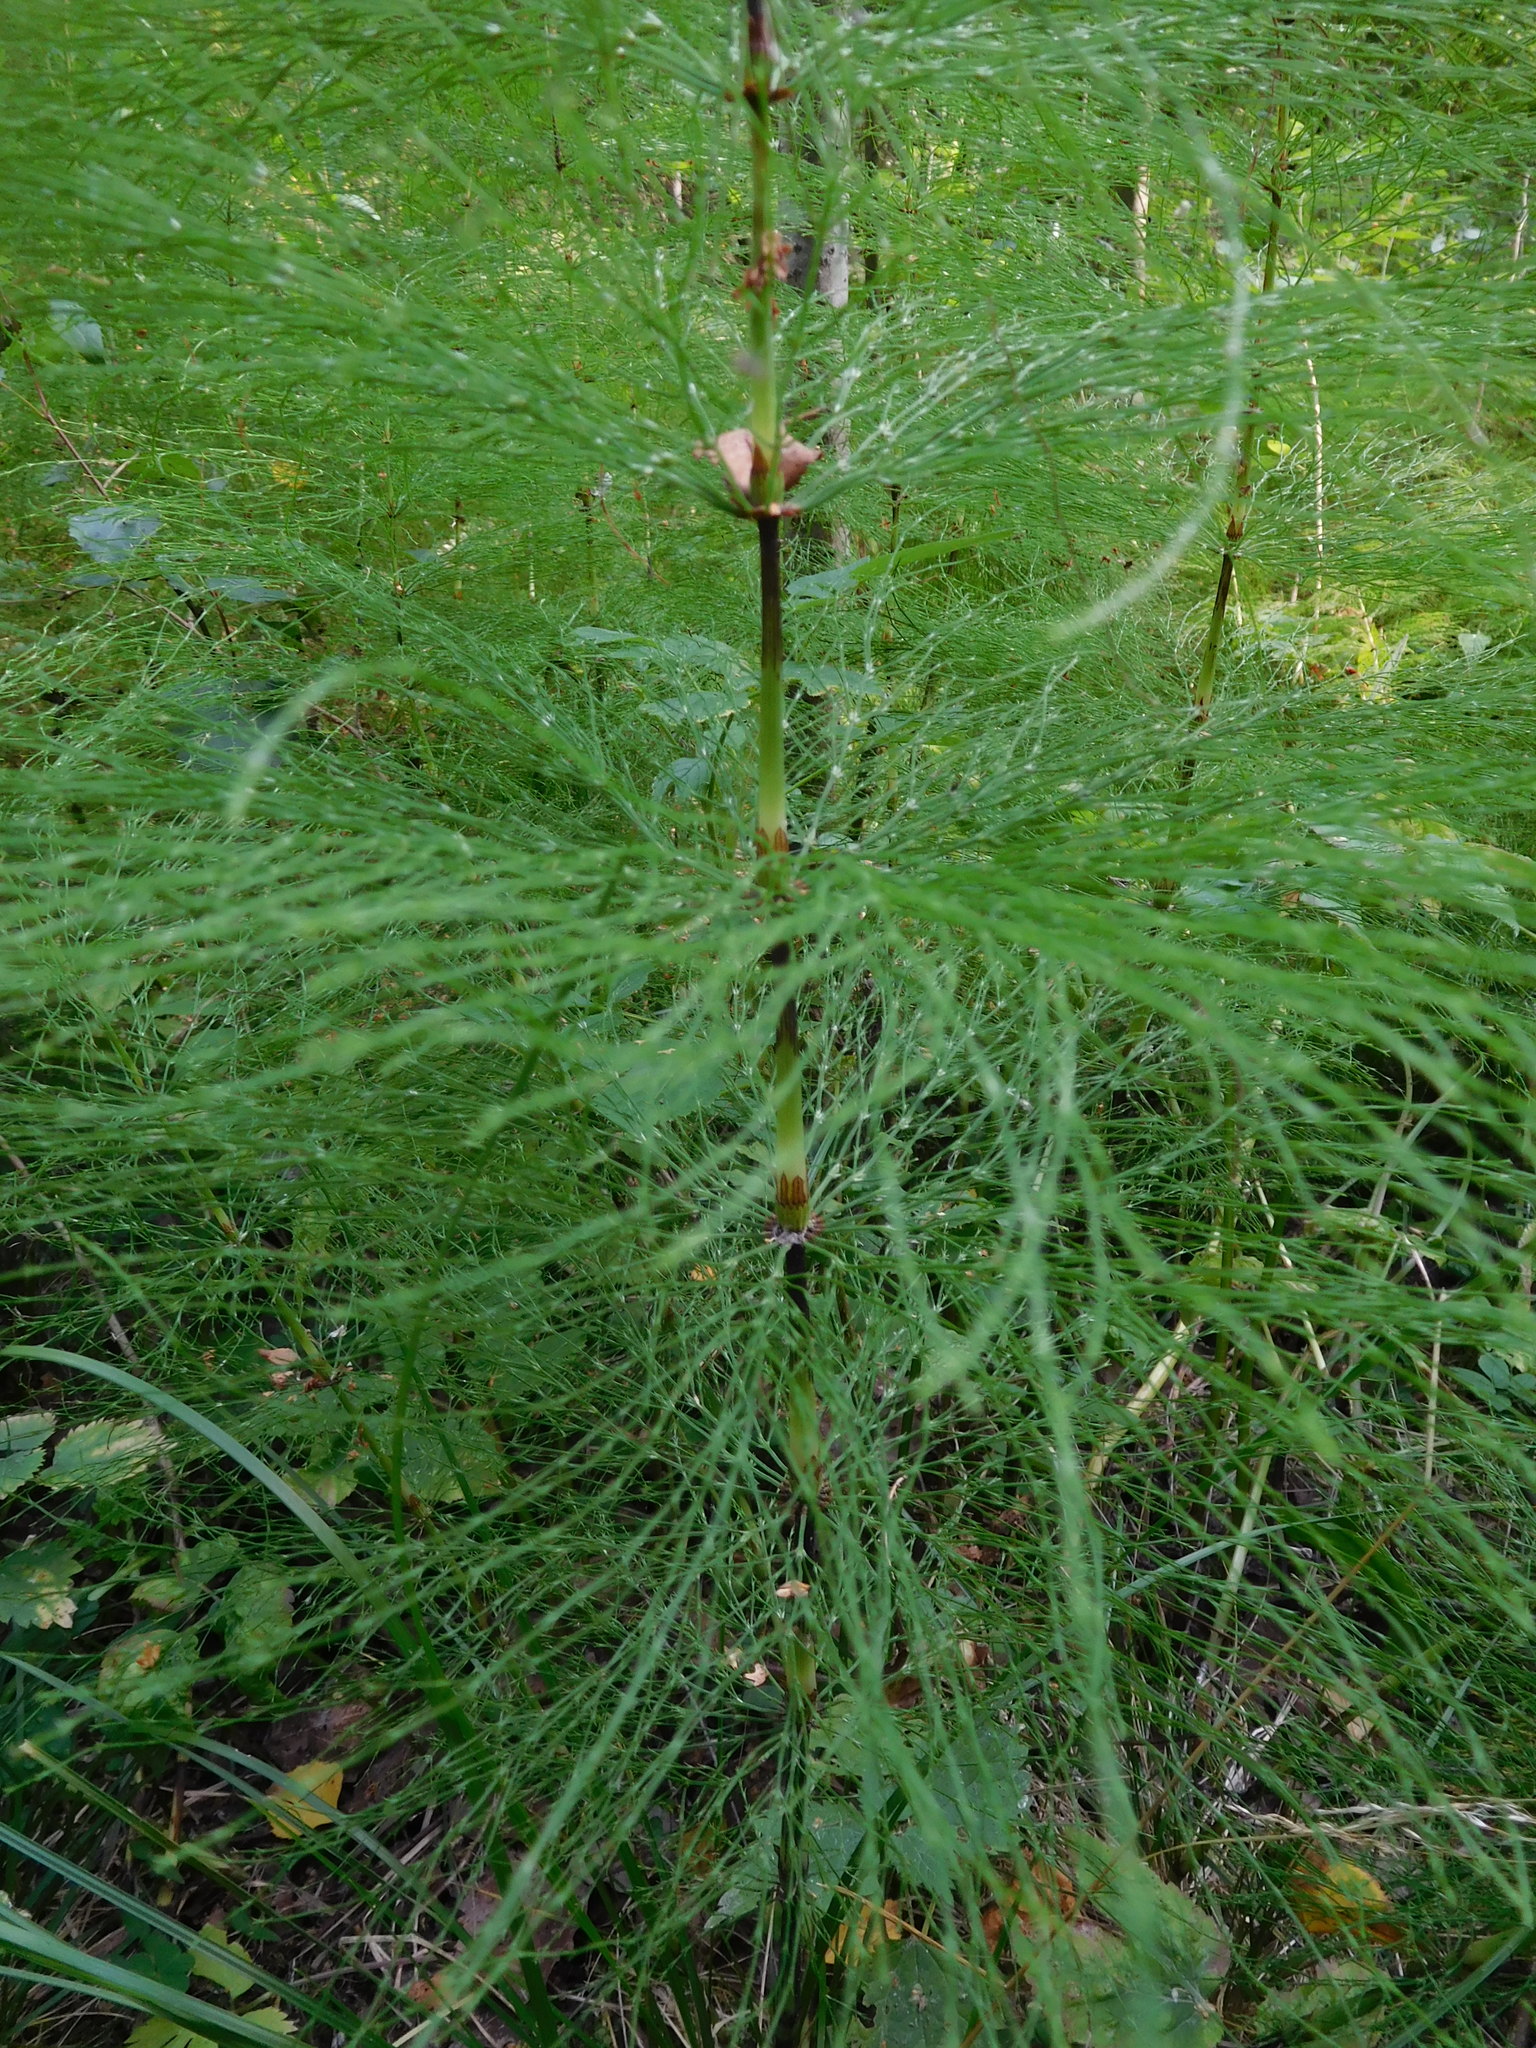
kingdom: Plantae
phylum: Tracheophyta
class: Polypodiopsida
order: Equisetales
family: Equisetaceae
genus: Equisetum
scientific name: Equisetum sylvaticum
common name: Wood horsetail
